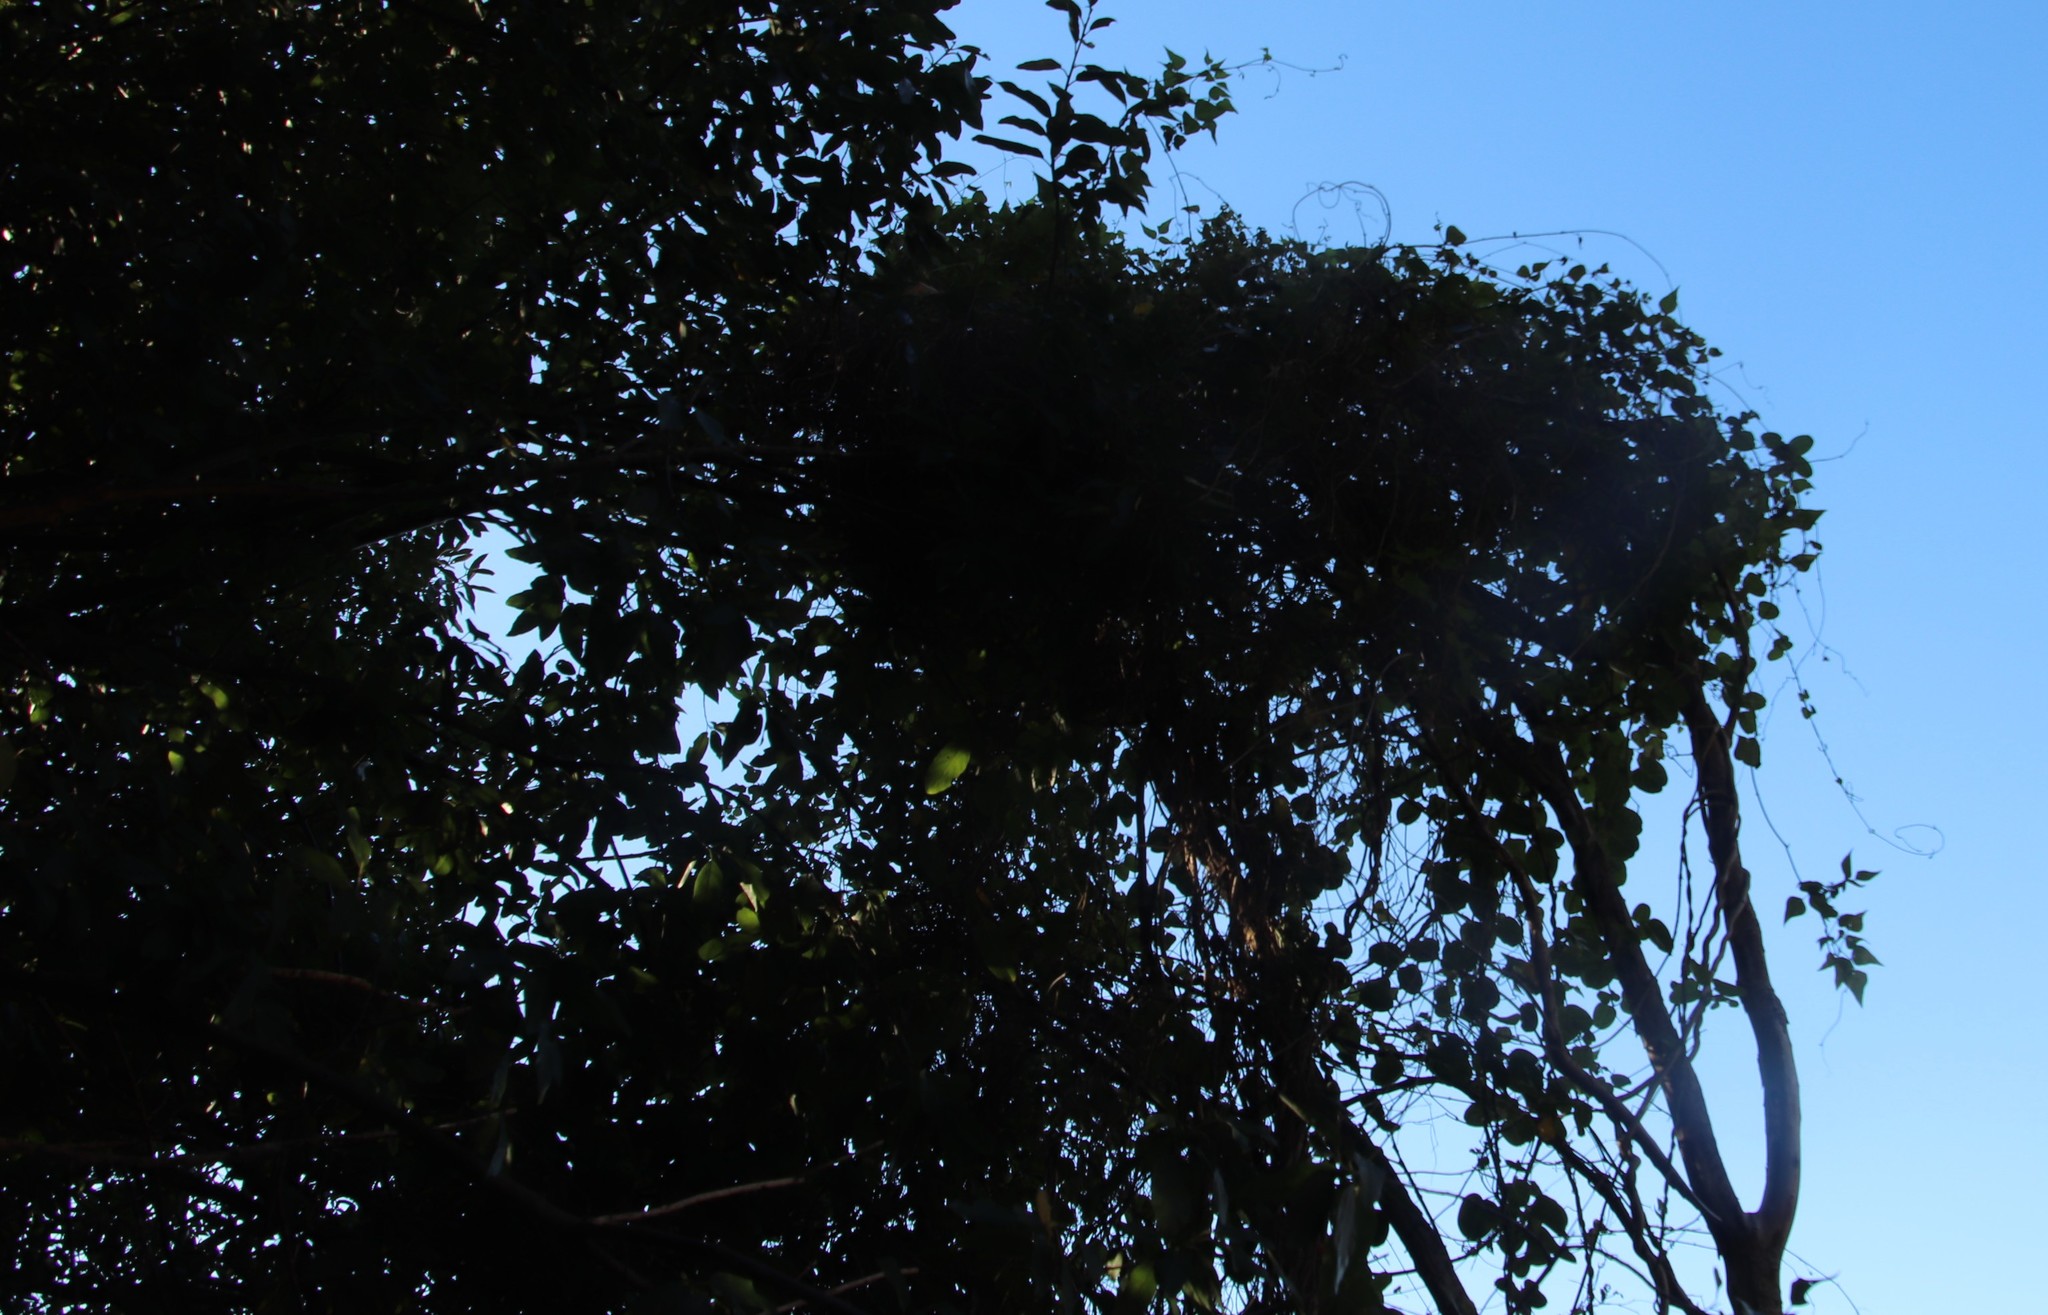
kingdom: Plantae
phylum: Tracheophyta
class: Magnoliopsida
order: Fabales
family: Fabaceae
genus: Dipogon
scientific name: Dipogon lignosus
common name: Okie bean
